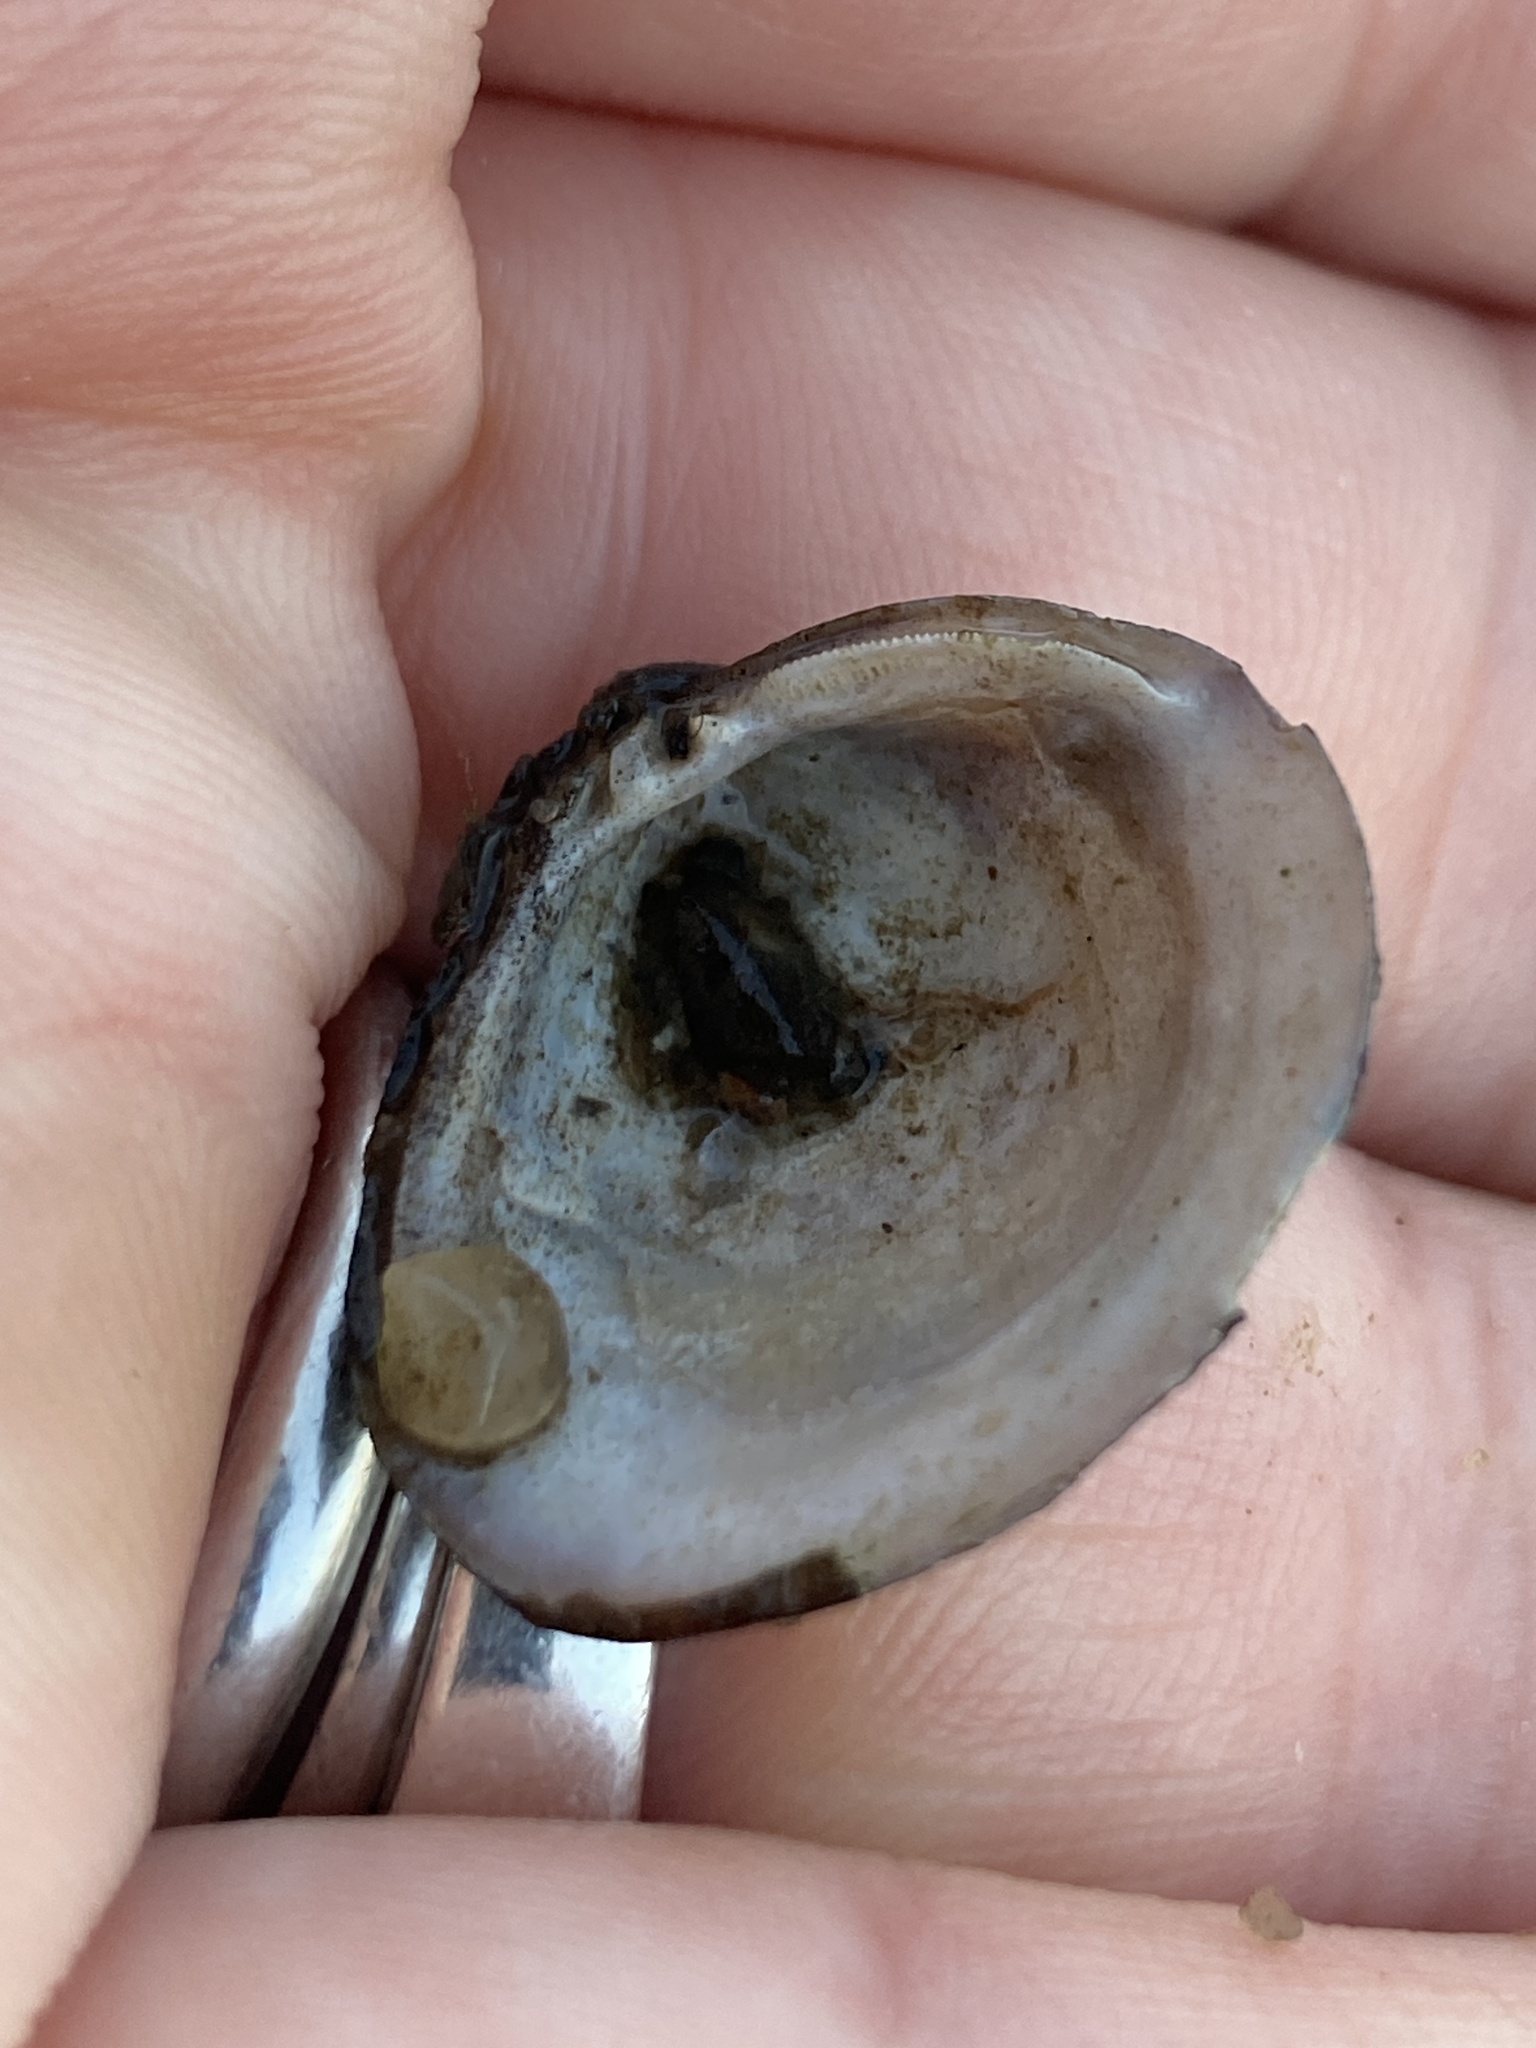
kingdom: Animalia
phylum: Mollusca
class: Bivalvia
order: Venerida
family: Cyrenidae
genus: Corbicula
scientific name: Corbicula fluminea
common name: Asian clam
